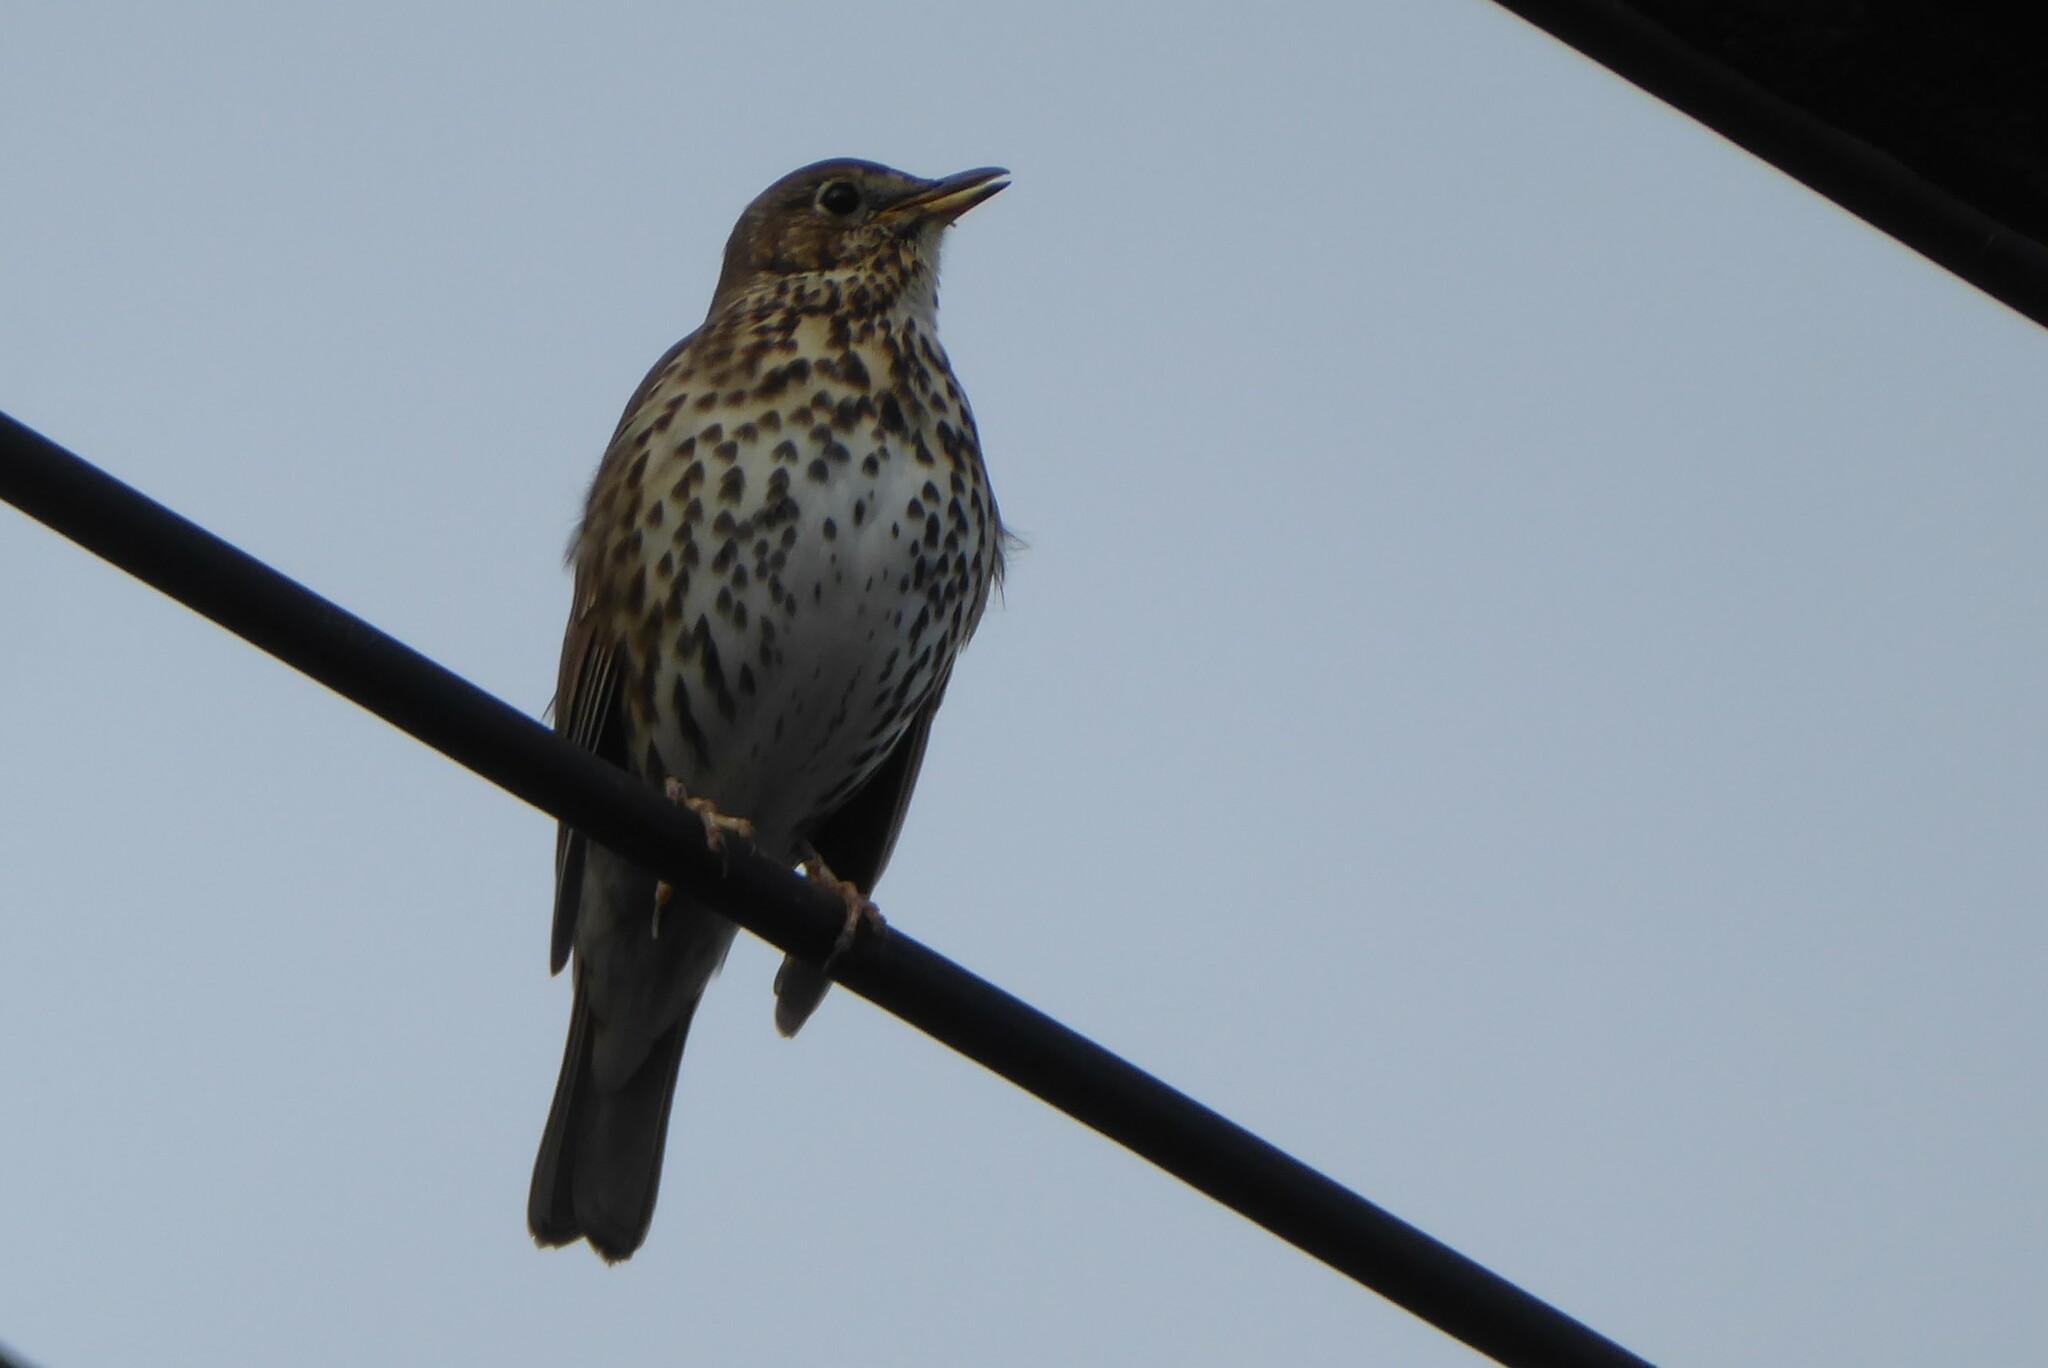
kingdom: Animalia
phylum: Chordata
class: Aves
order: Passeriformes
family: Turdidae
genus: Turdus
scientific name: Turdus philomelos
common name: Song thrush
